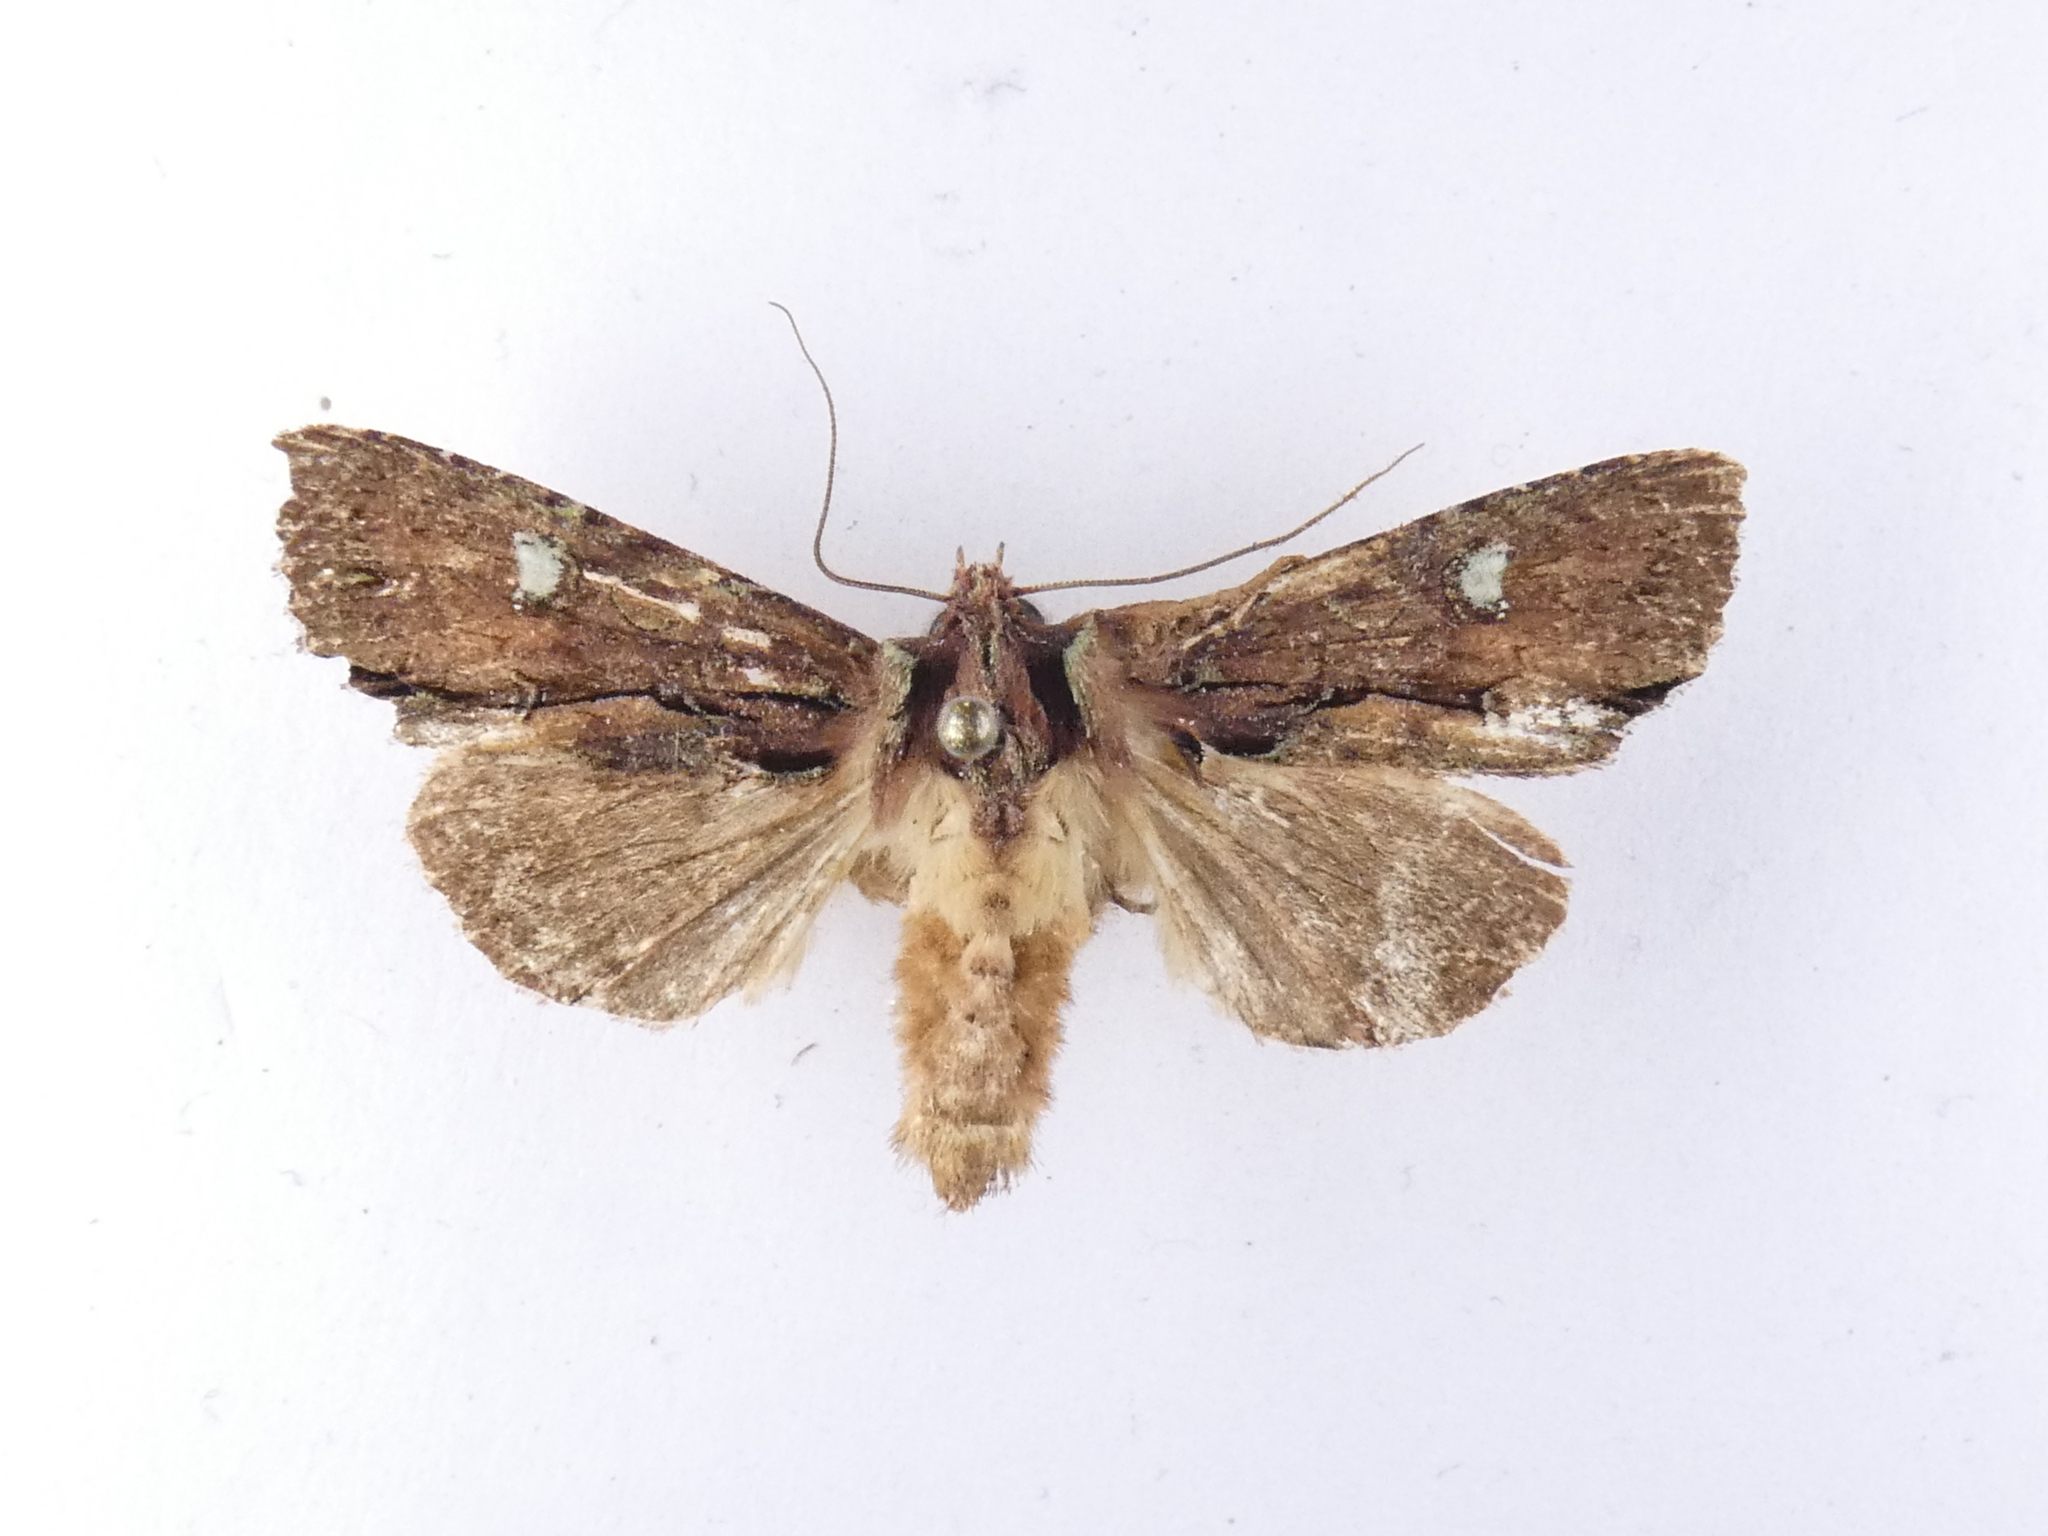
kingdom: Animalia
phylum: Arthropoda
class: Insecta
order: Lepidoptera
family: Noctuidae
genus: Meterana
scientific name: Meterana diatmeta
